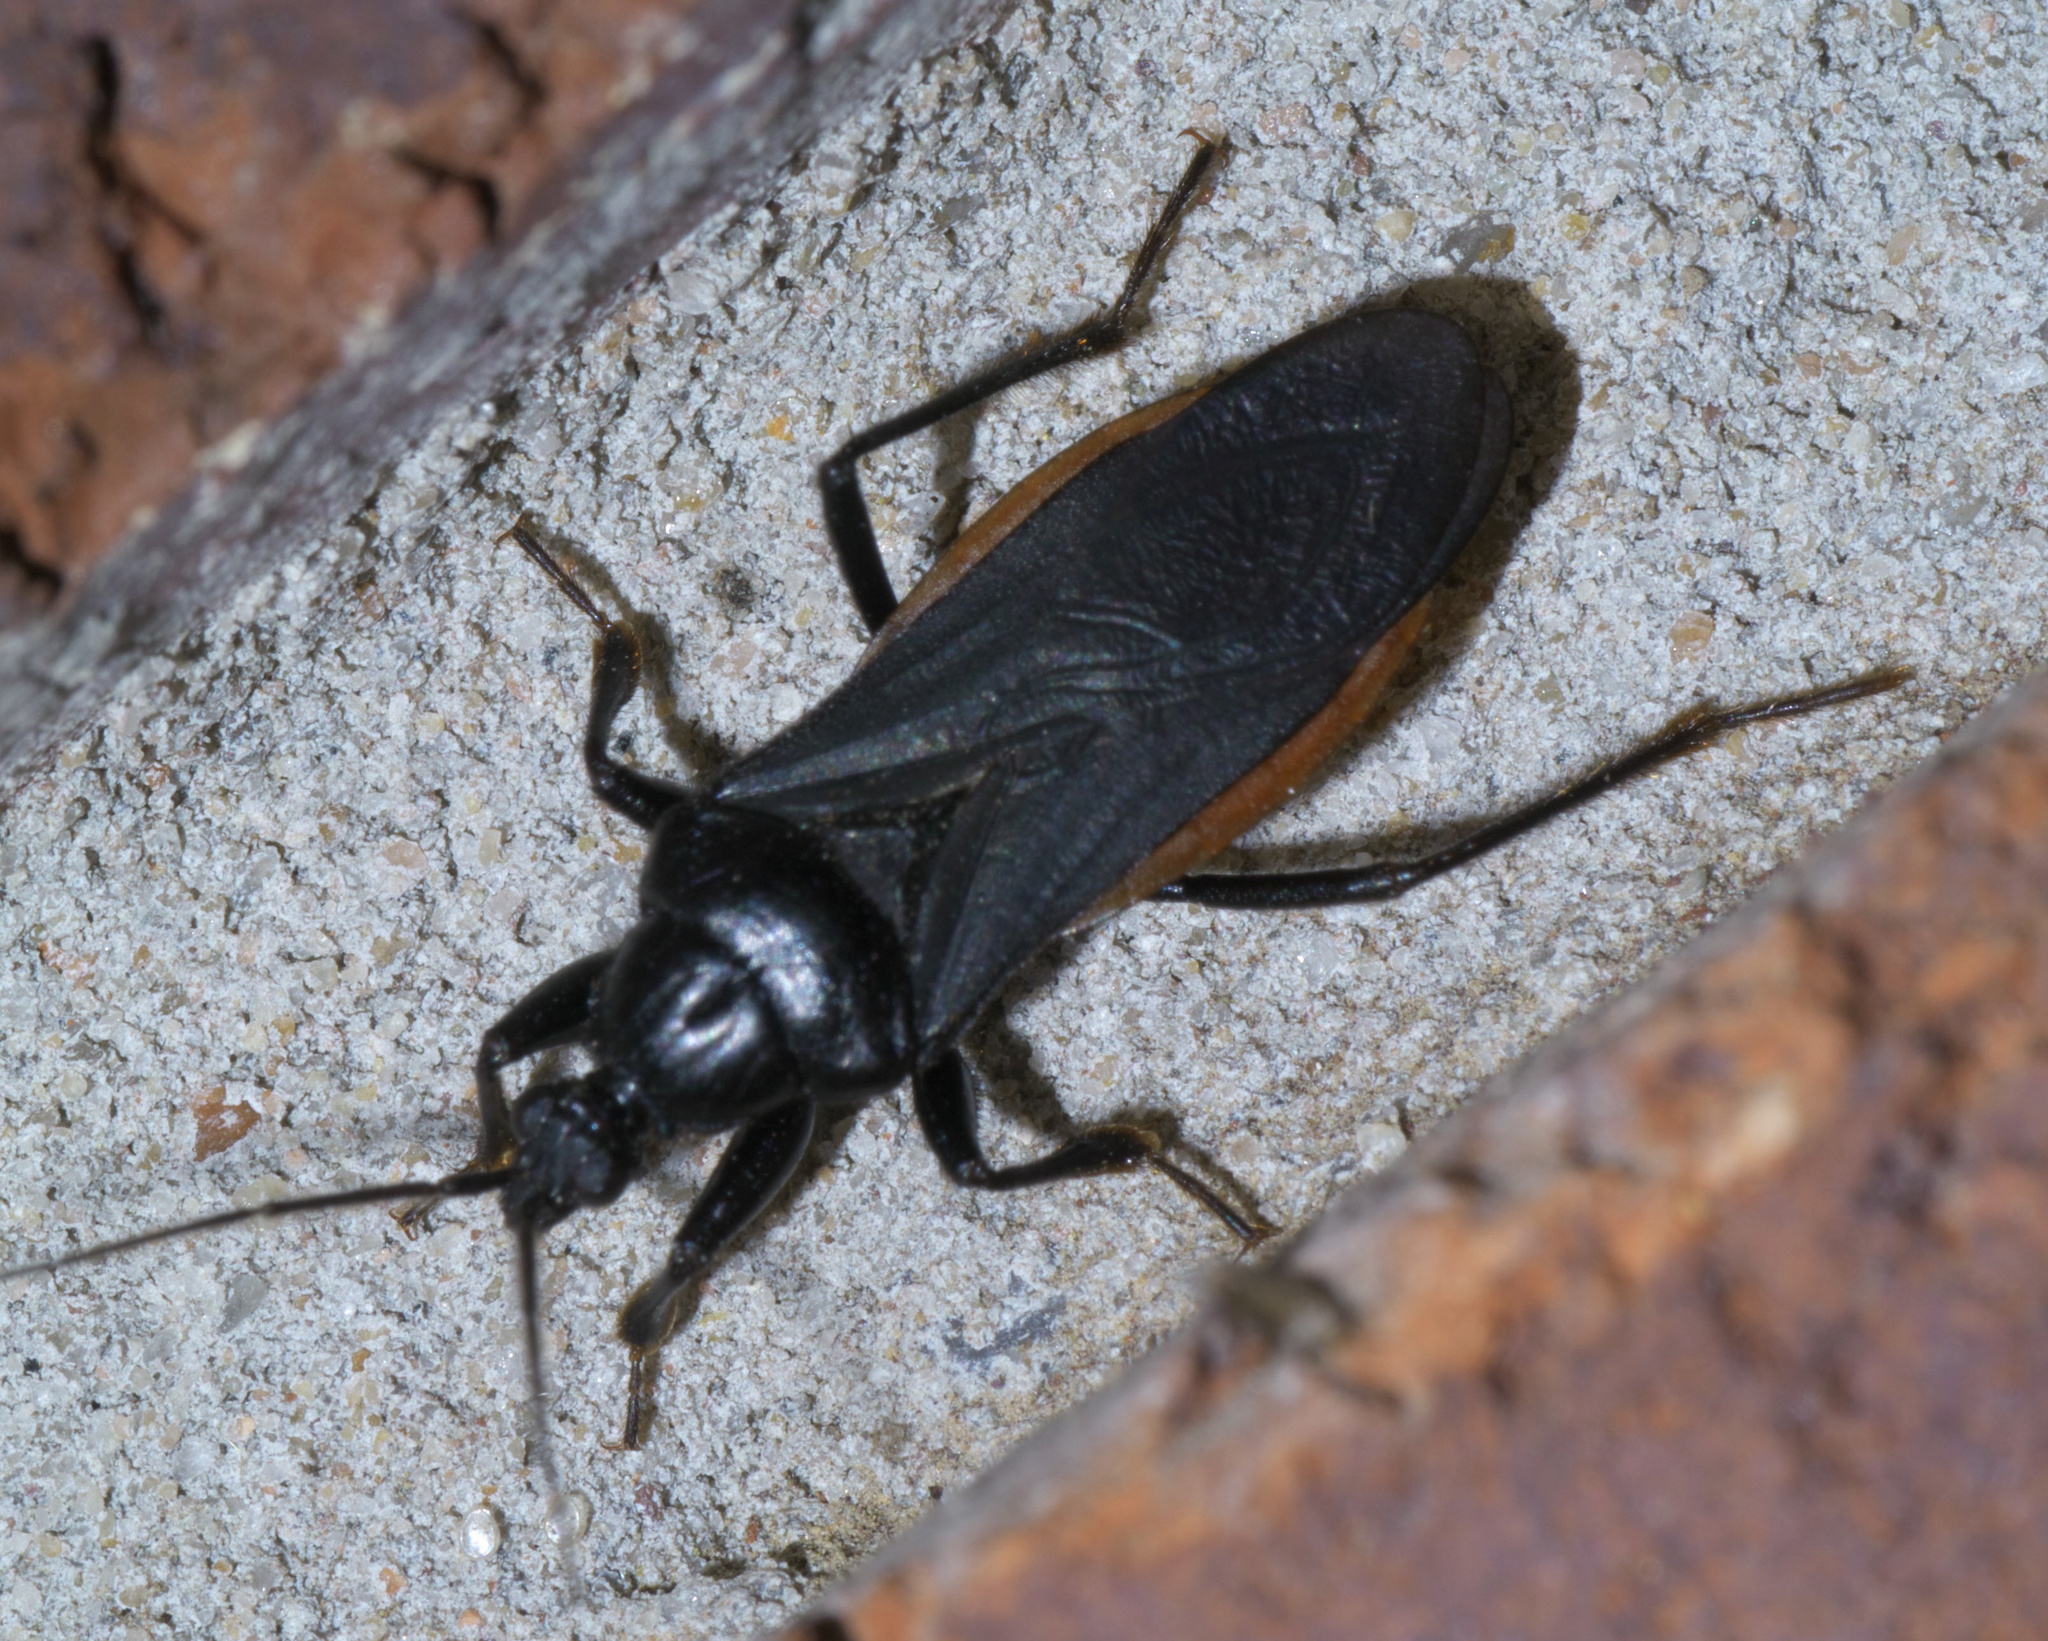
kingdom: Animalia
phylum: Arthropoda
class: Insecta
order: Hemiptera
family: Reduviidae
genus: Melanolestes
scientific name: Melanolestes picipes
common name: Assassin bug
